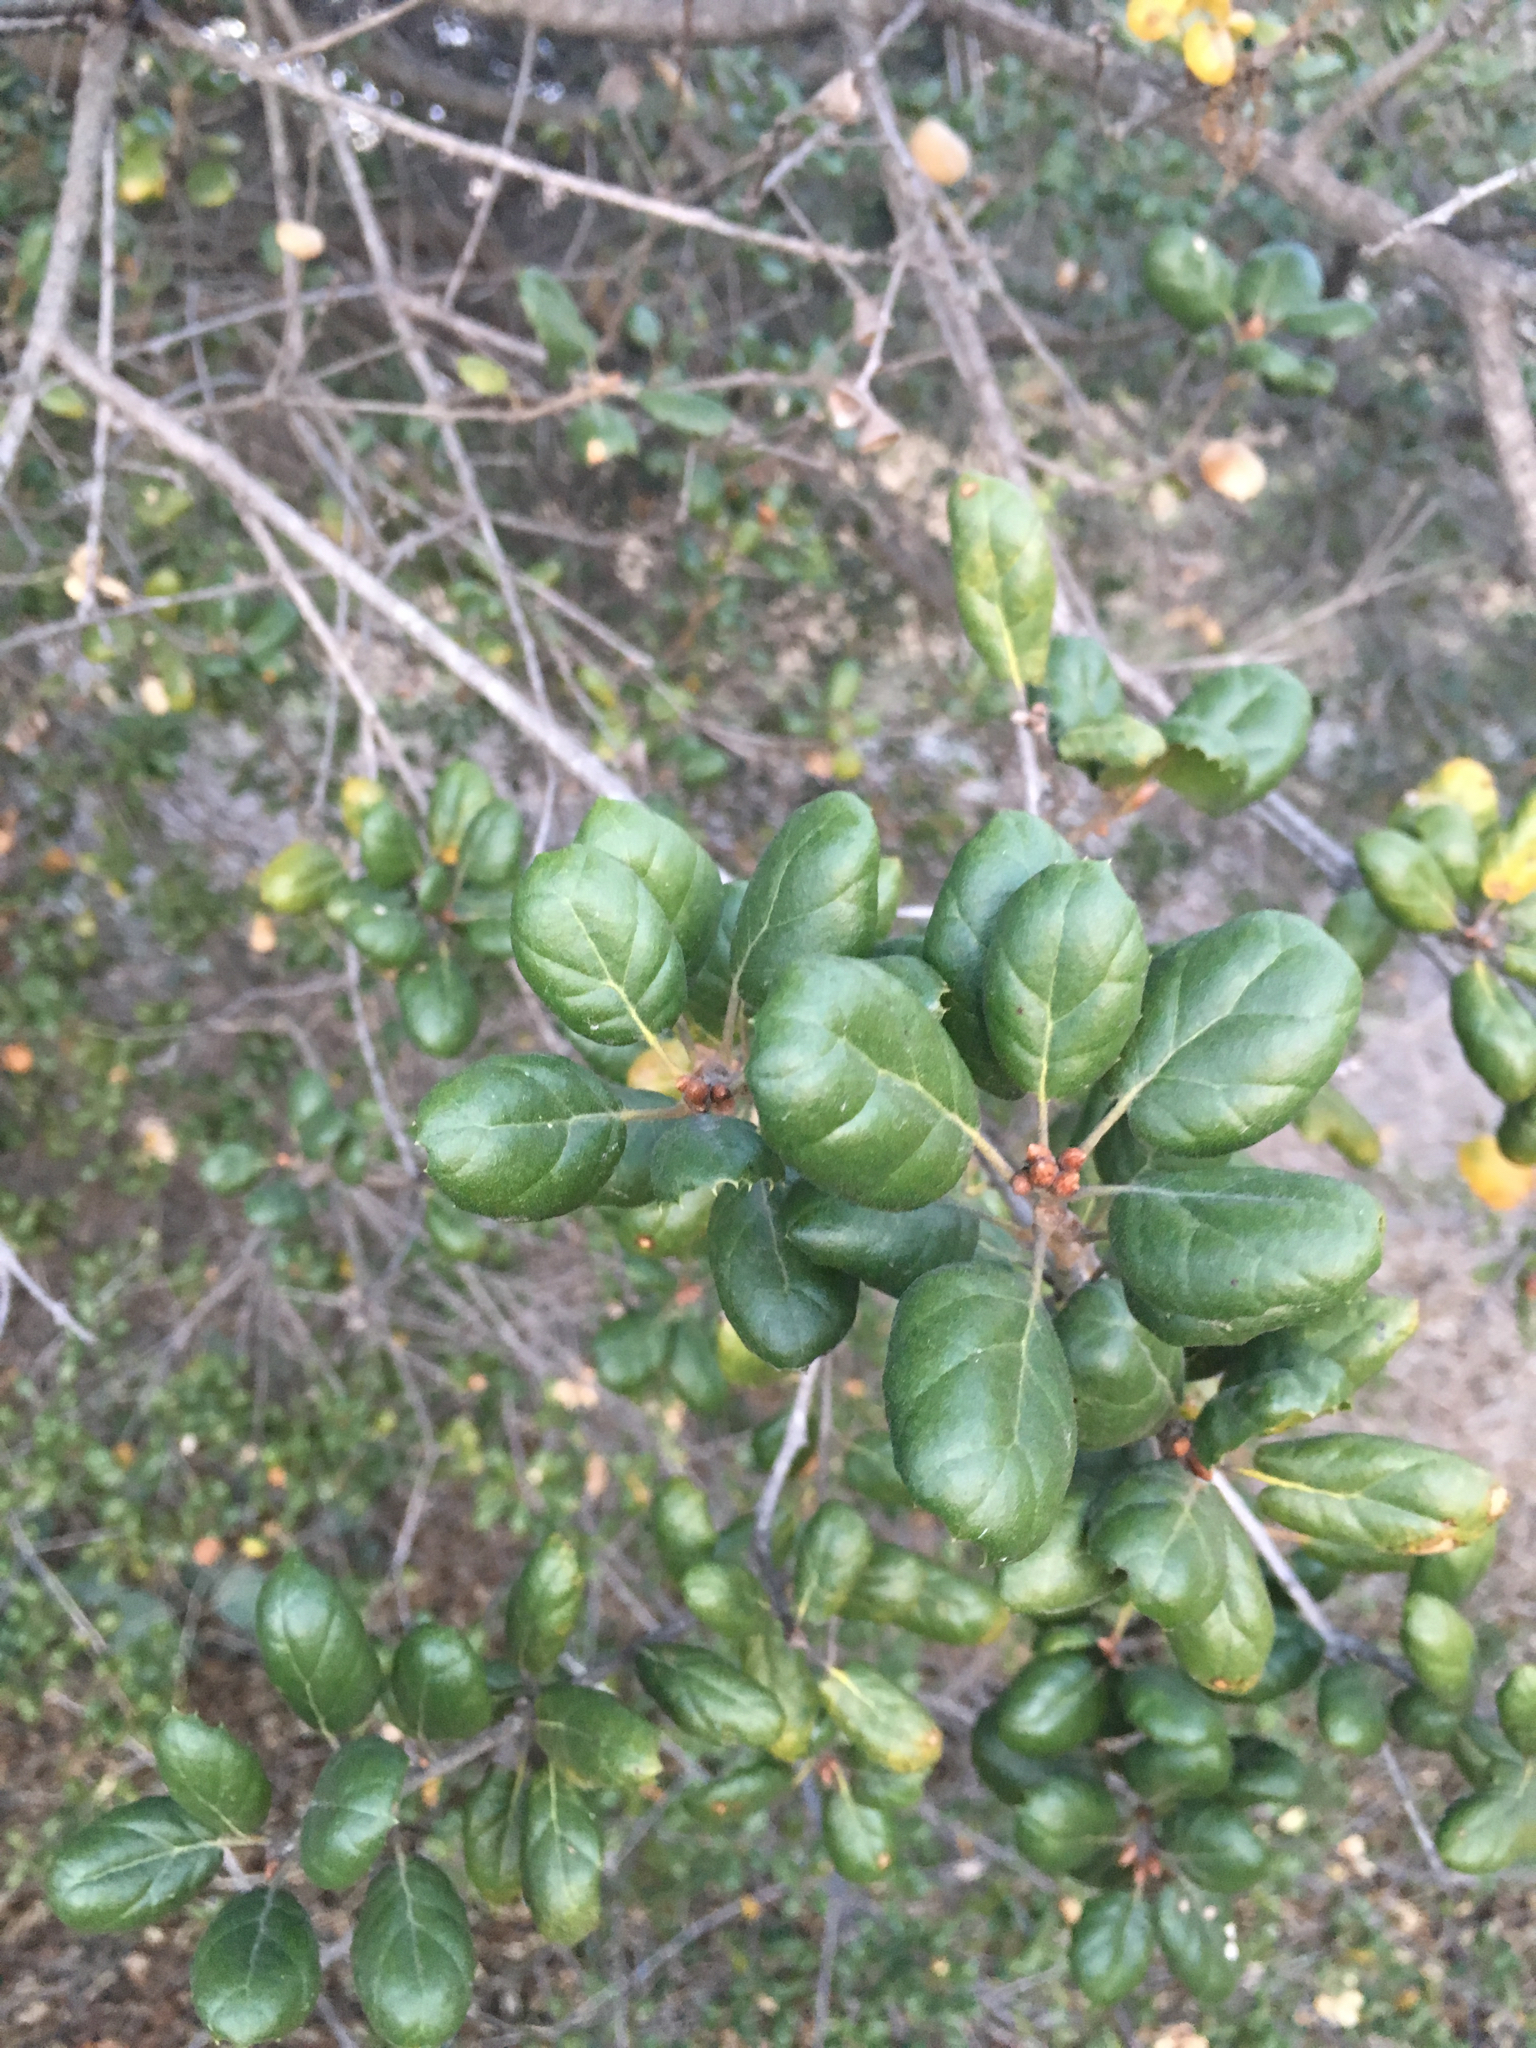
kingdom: Plantae
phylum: Tracheophyta
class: Magnoliopsida
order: Fagales
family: Fagaceae
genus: Quercus
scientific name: Quercus agrifolia
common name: California live oak
